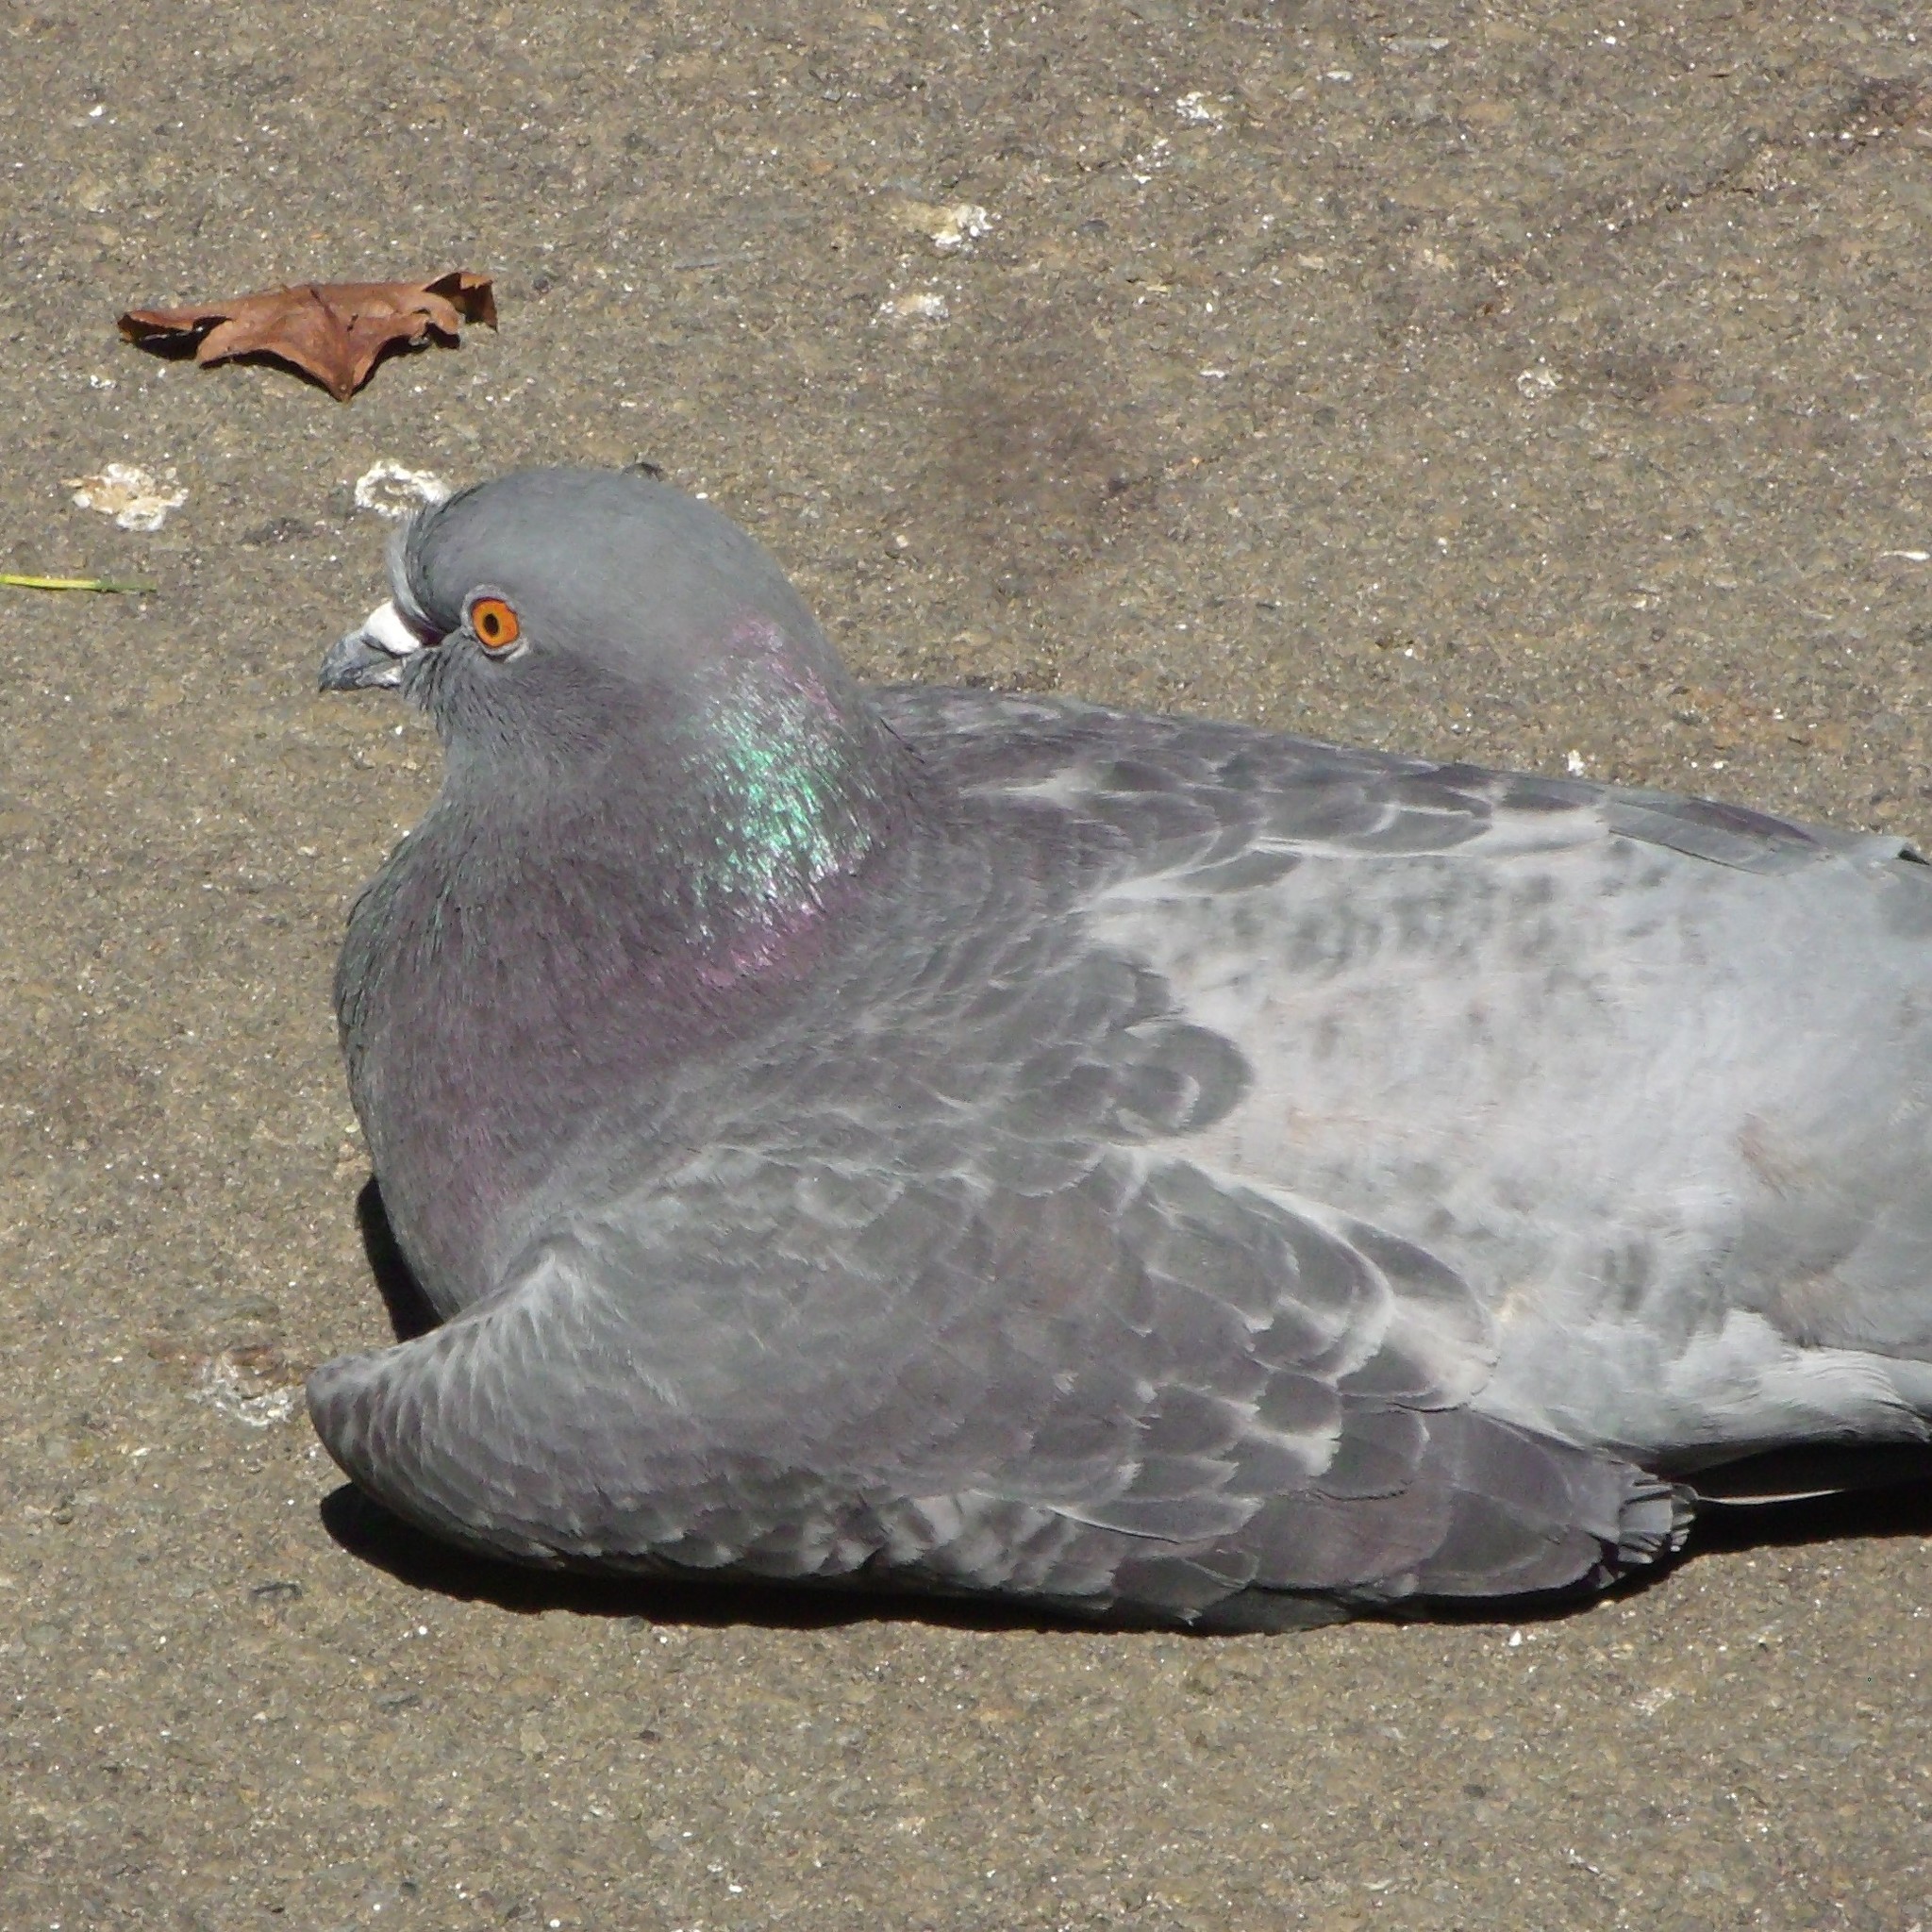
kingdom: Animalia
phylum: Chordata
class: Aves
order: Columbiformes
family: Columbidae
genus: Columba
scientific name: Columba livia
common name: Rock pigeon
